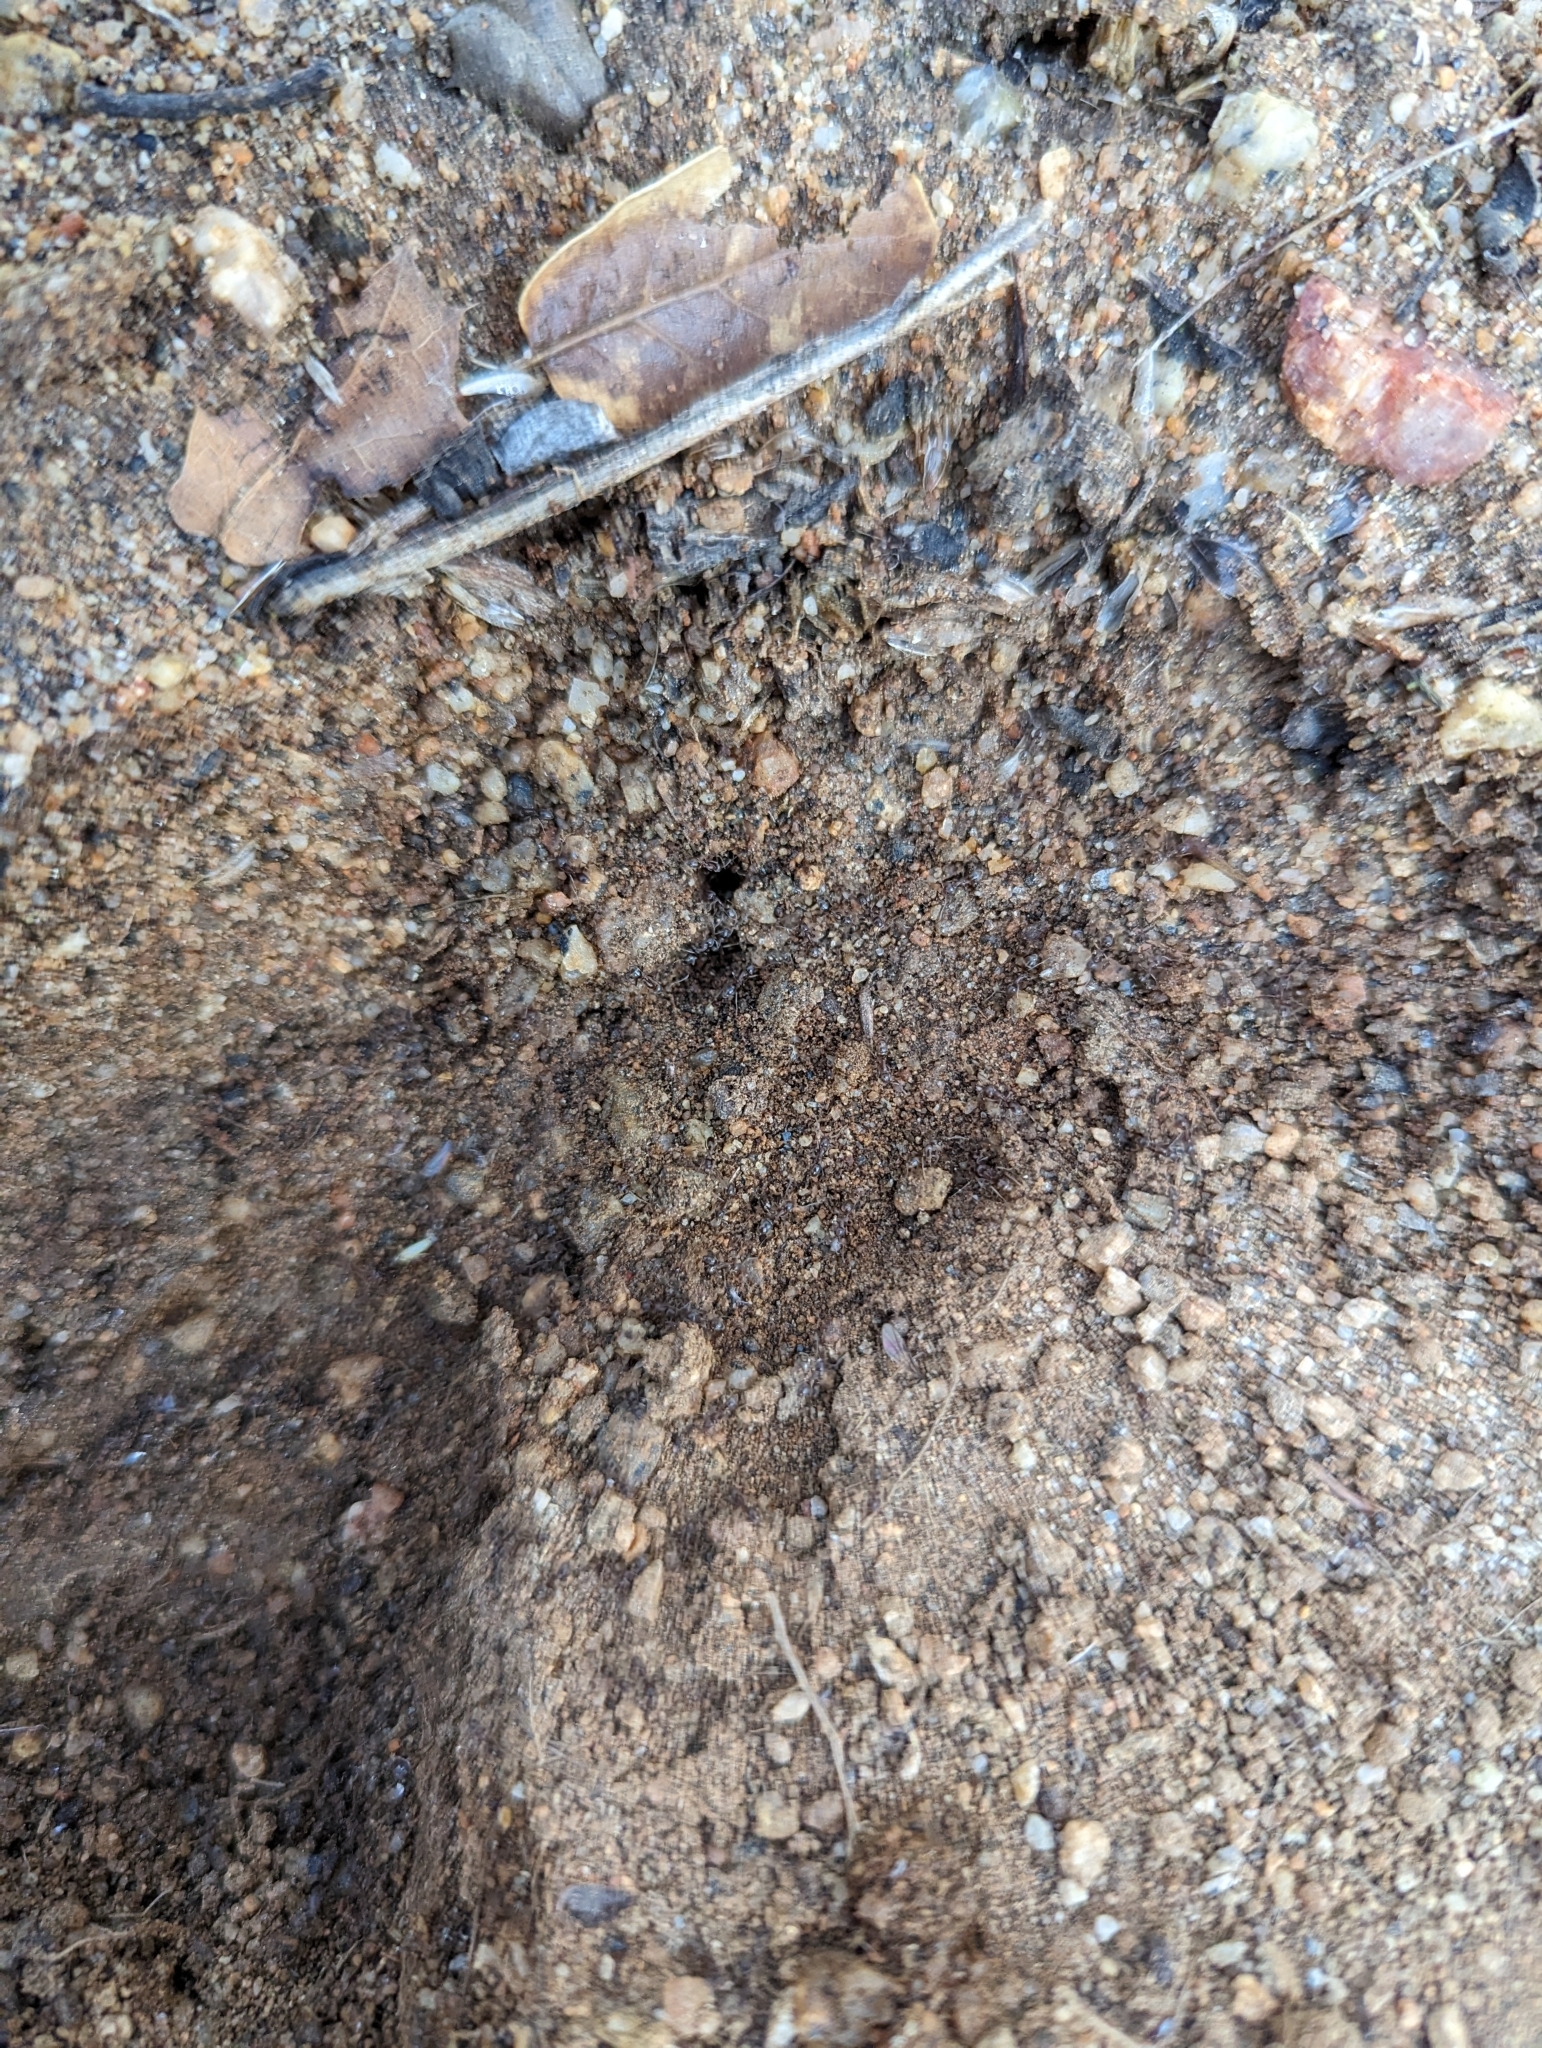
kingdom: Animalia
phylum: Arthropoda
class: Insecta
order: Hymenoptera
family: Formicidae
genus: Linepithema
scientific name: Linepithema humile
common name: Argentine ant
